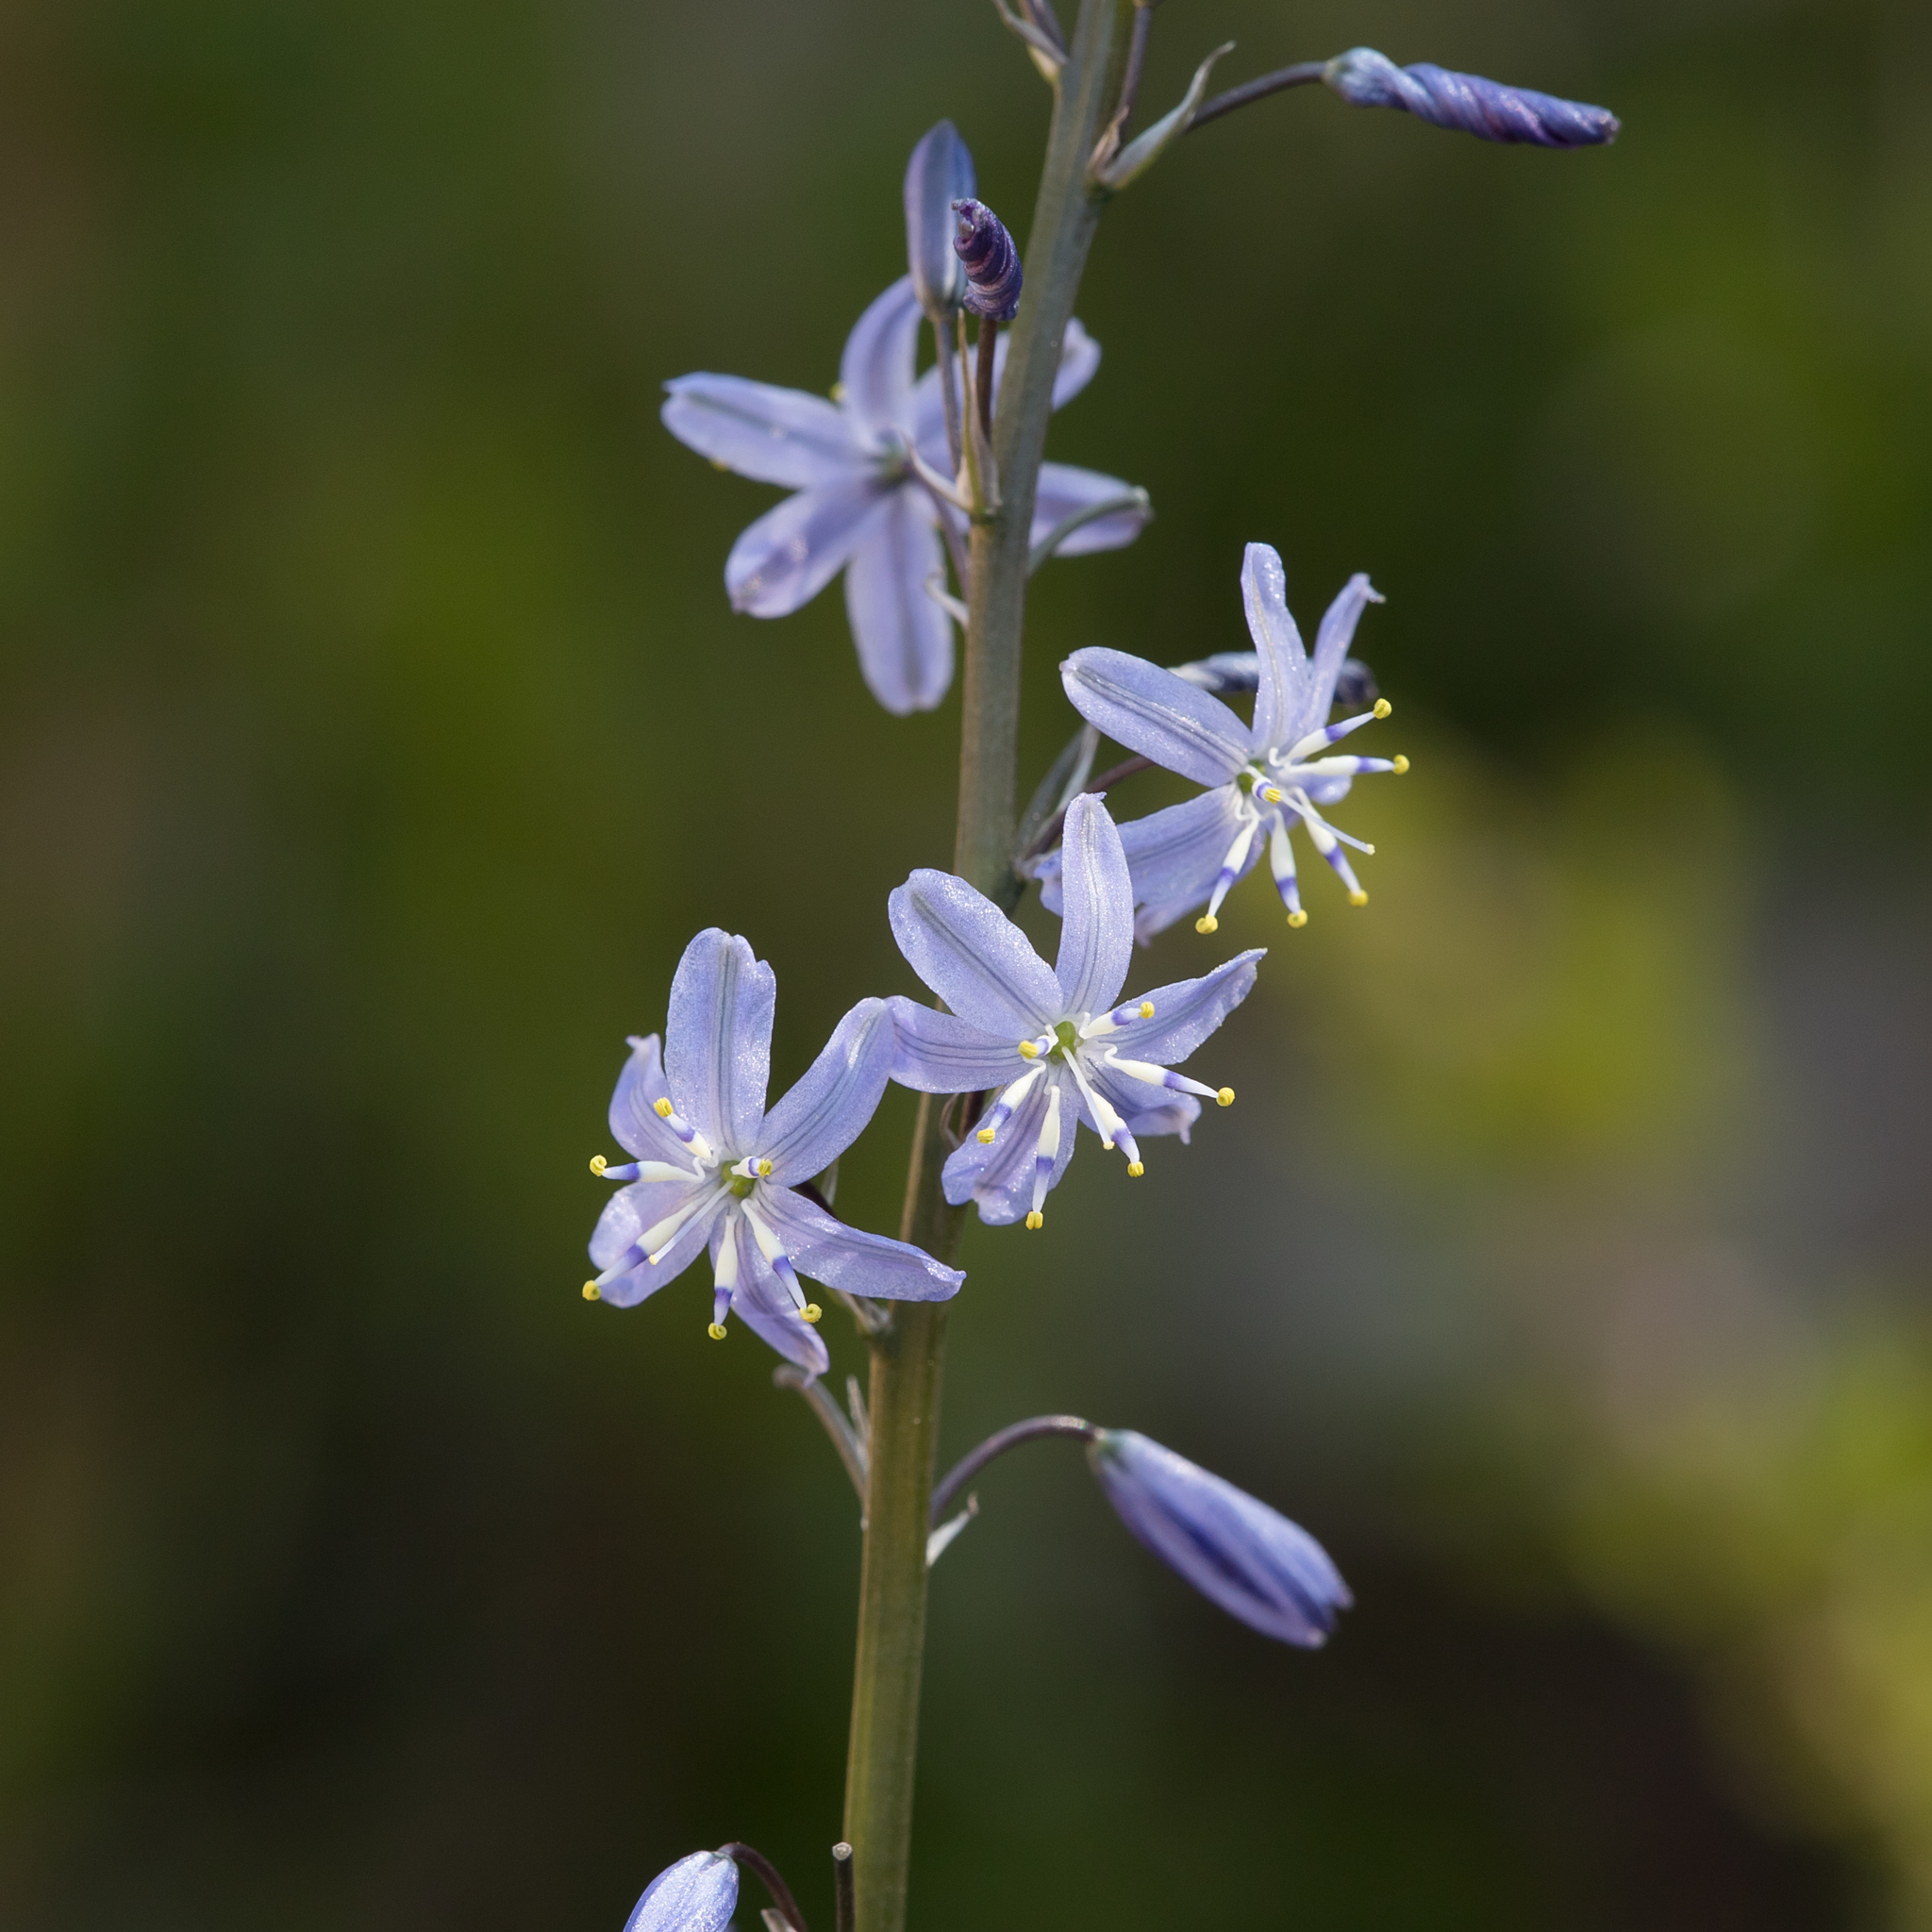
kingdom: Plantae
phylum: Tracheophyta
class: Liliopsida
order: Asparagales
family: Asphodelaceae
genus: Caesia
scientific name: Caesia calliantha
